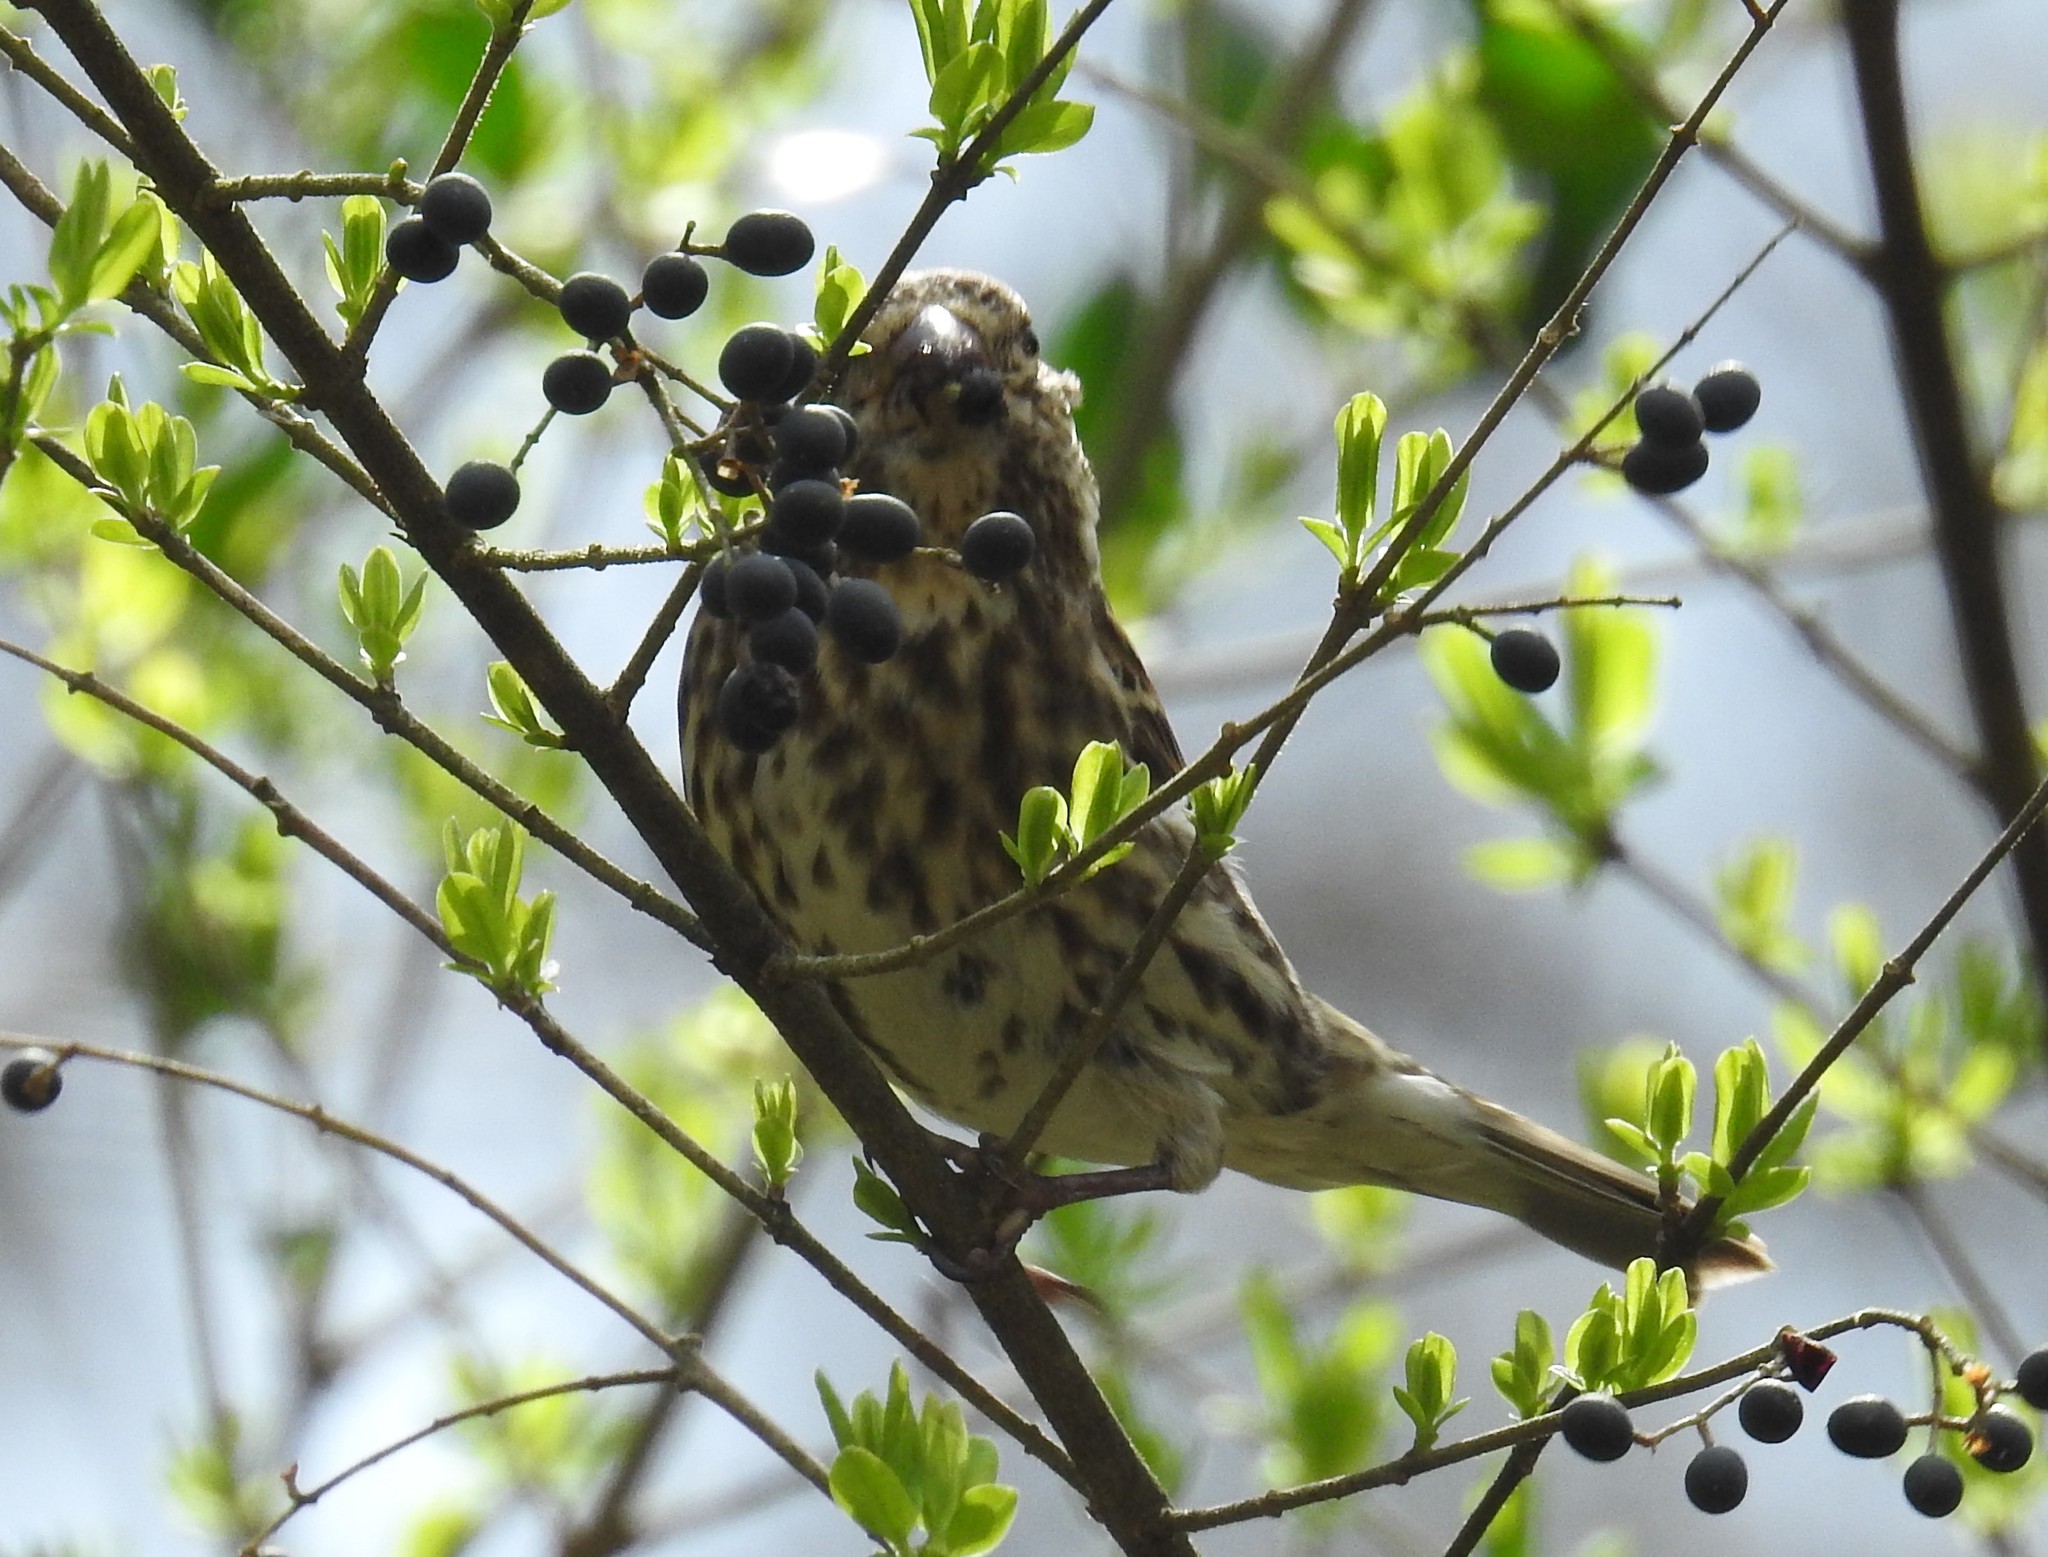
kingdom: Animalia
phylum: Chordata
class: Aves
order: Passeriformes
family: Fringillidae
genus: Haemorhous
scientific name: Haemorhous purpureus
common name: Purple finch
